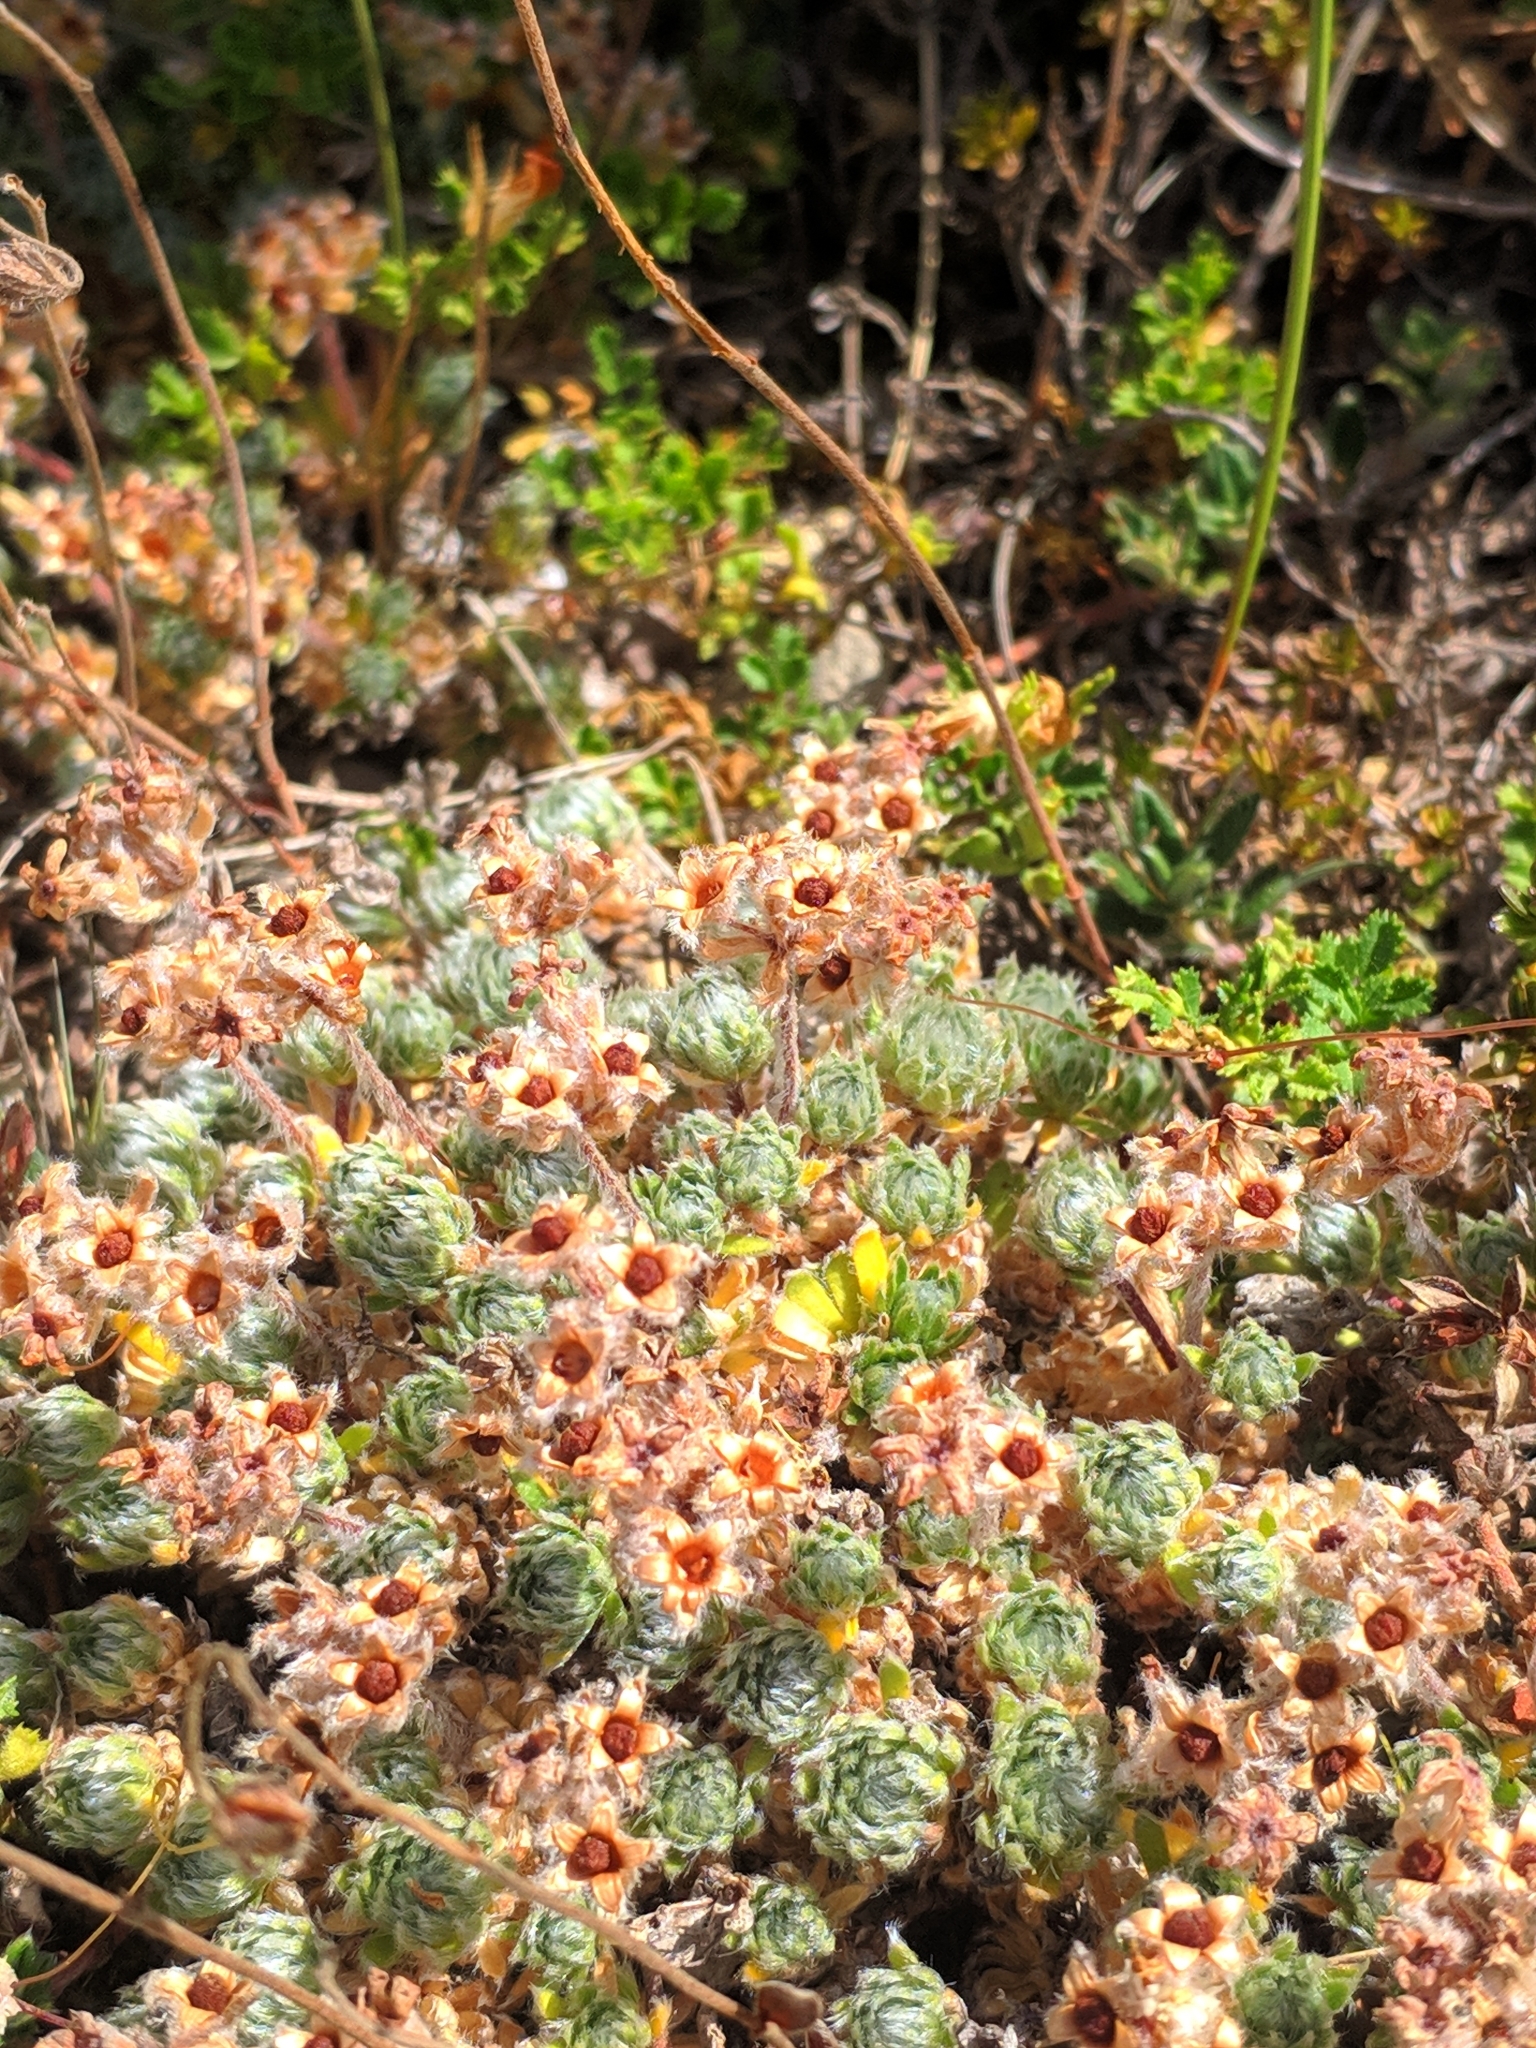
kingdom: Plantae
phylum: Tracheophyta
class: Magnoliopsida
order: Ericales
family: Primulaceae
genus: Androsace
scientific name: Androsace villosa
